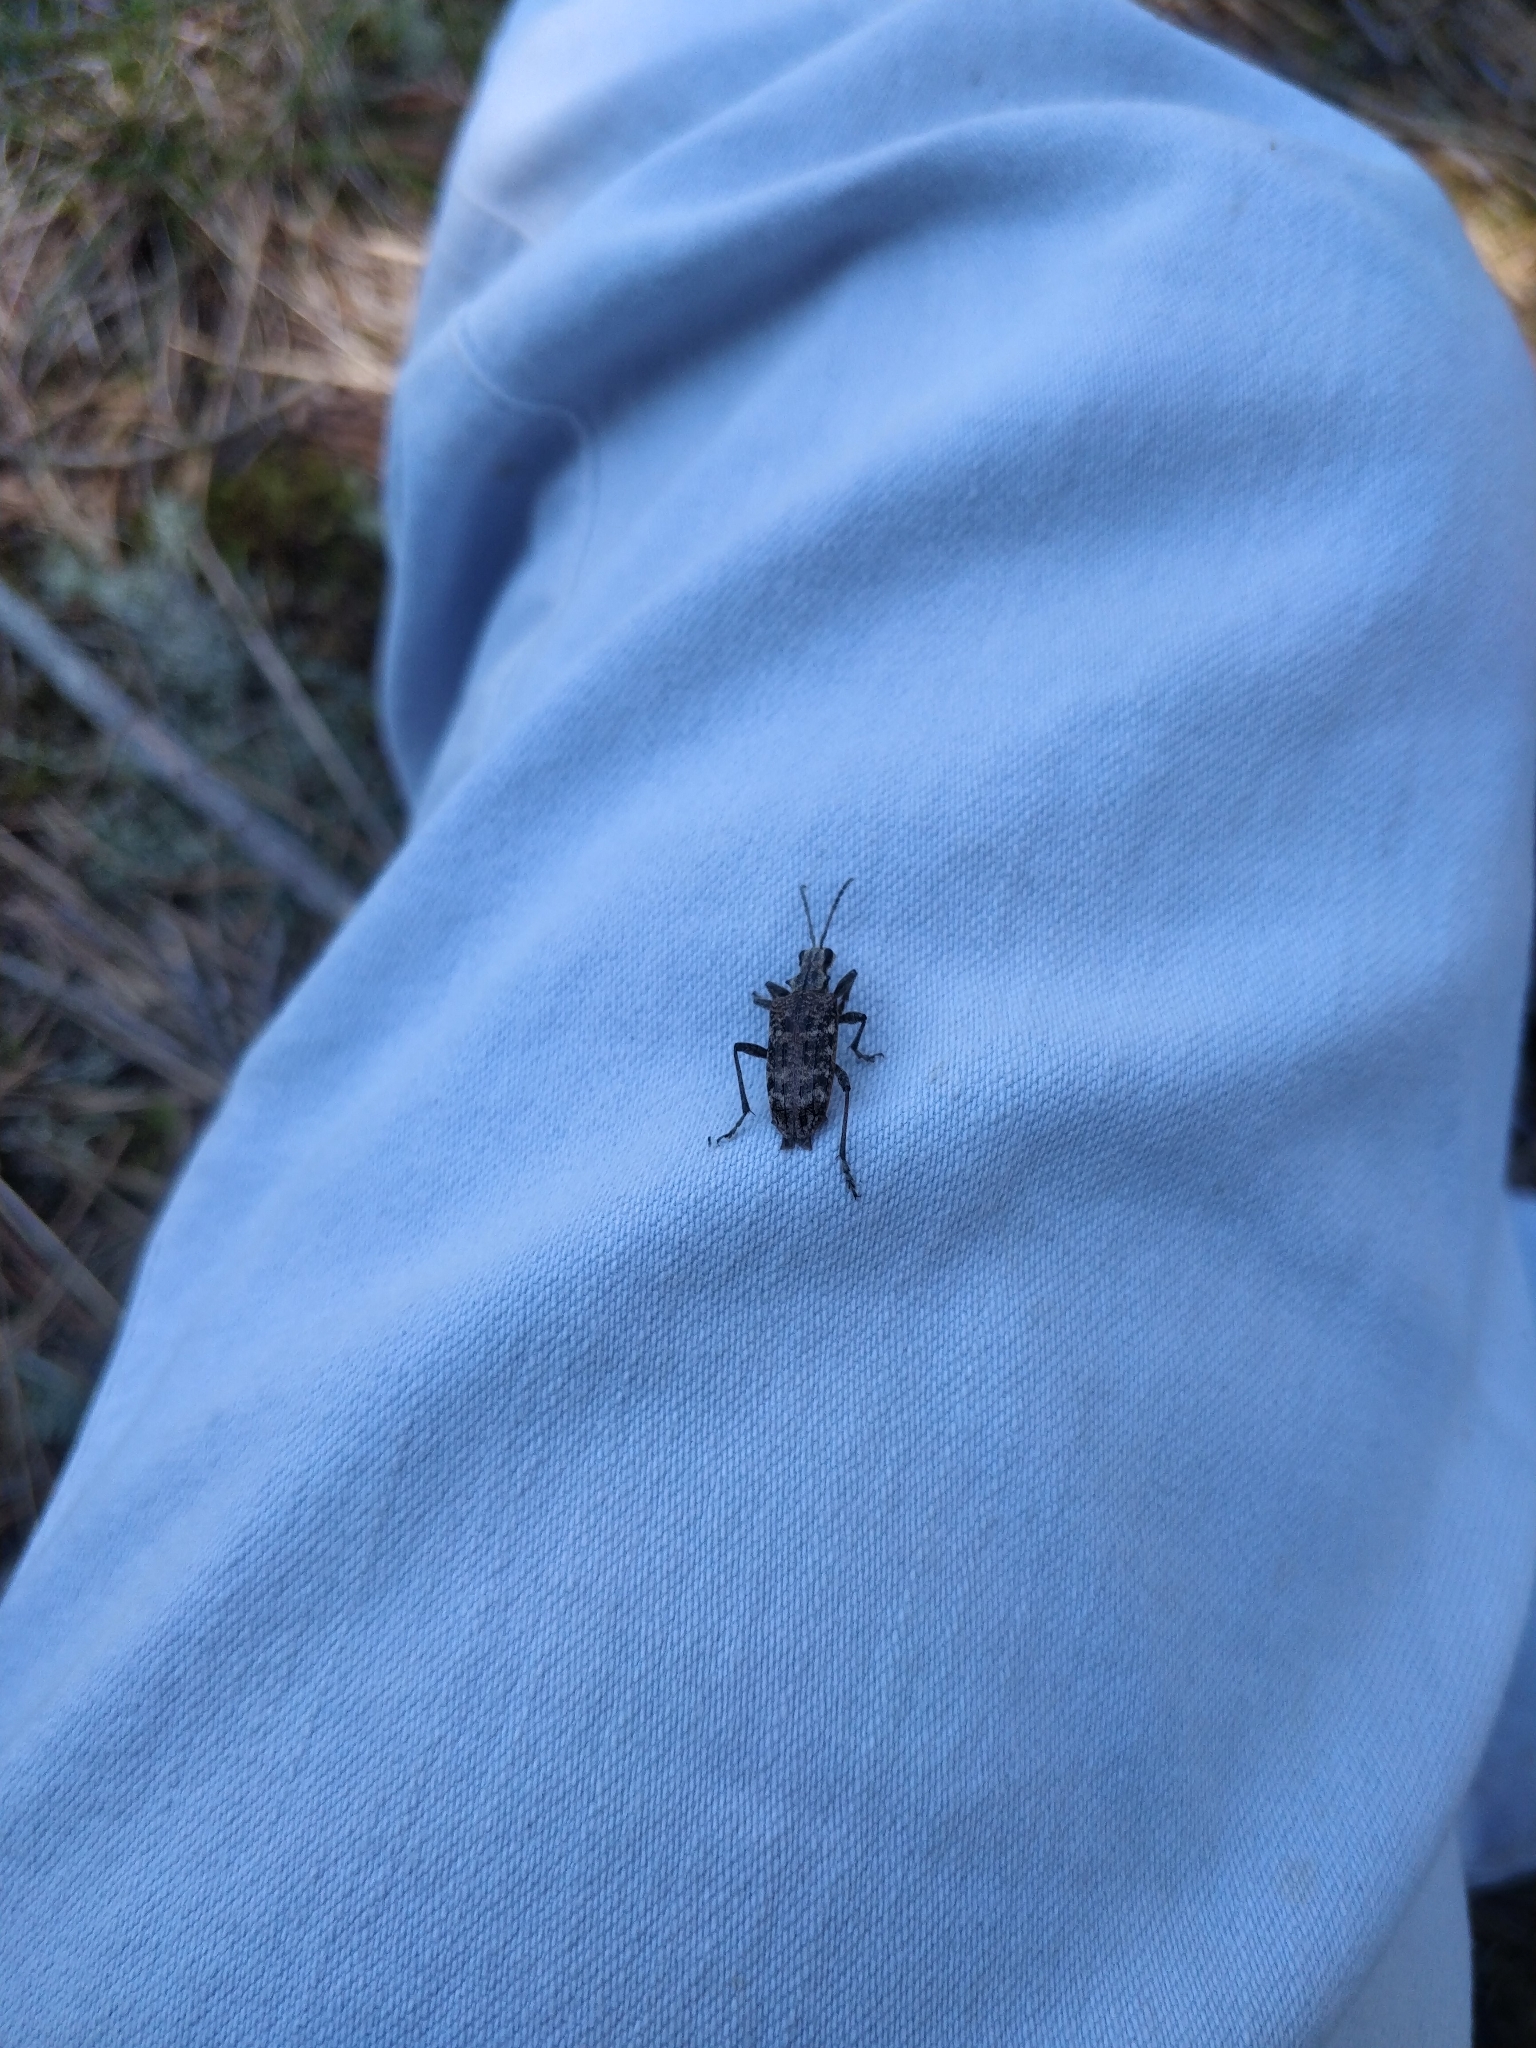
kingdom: Animalia
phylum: Arthropoda
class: Insecta
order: Coleoptera
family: Cerambycidae
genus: Rhagium
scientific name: Rhagium inquisitor
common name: Ribbed pine borer
